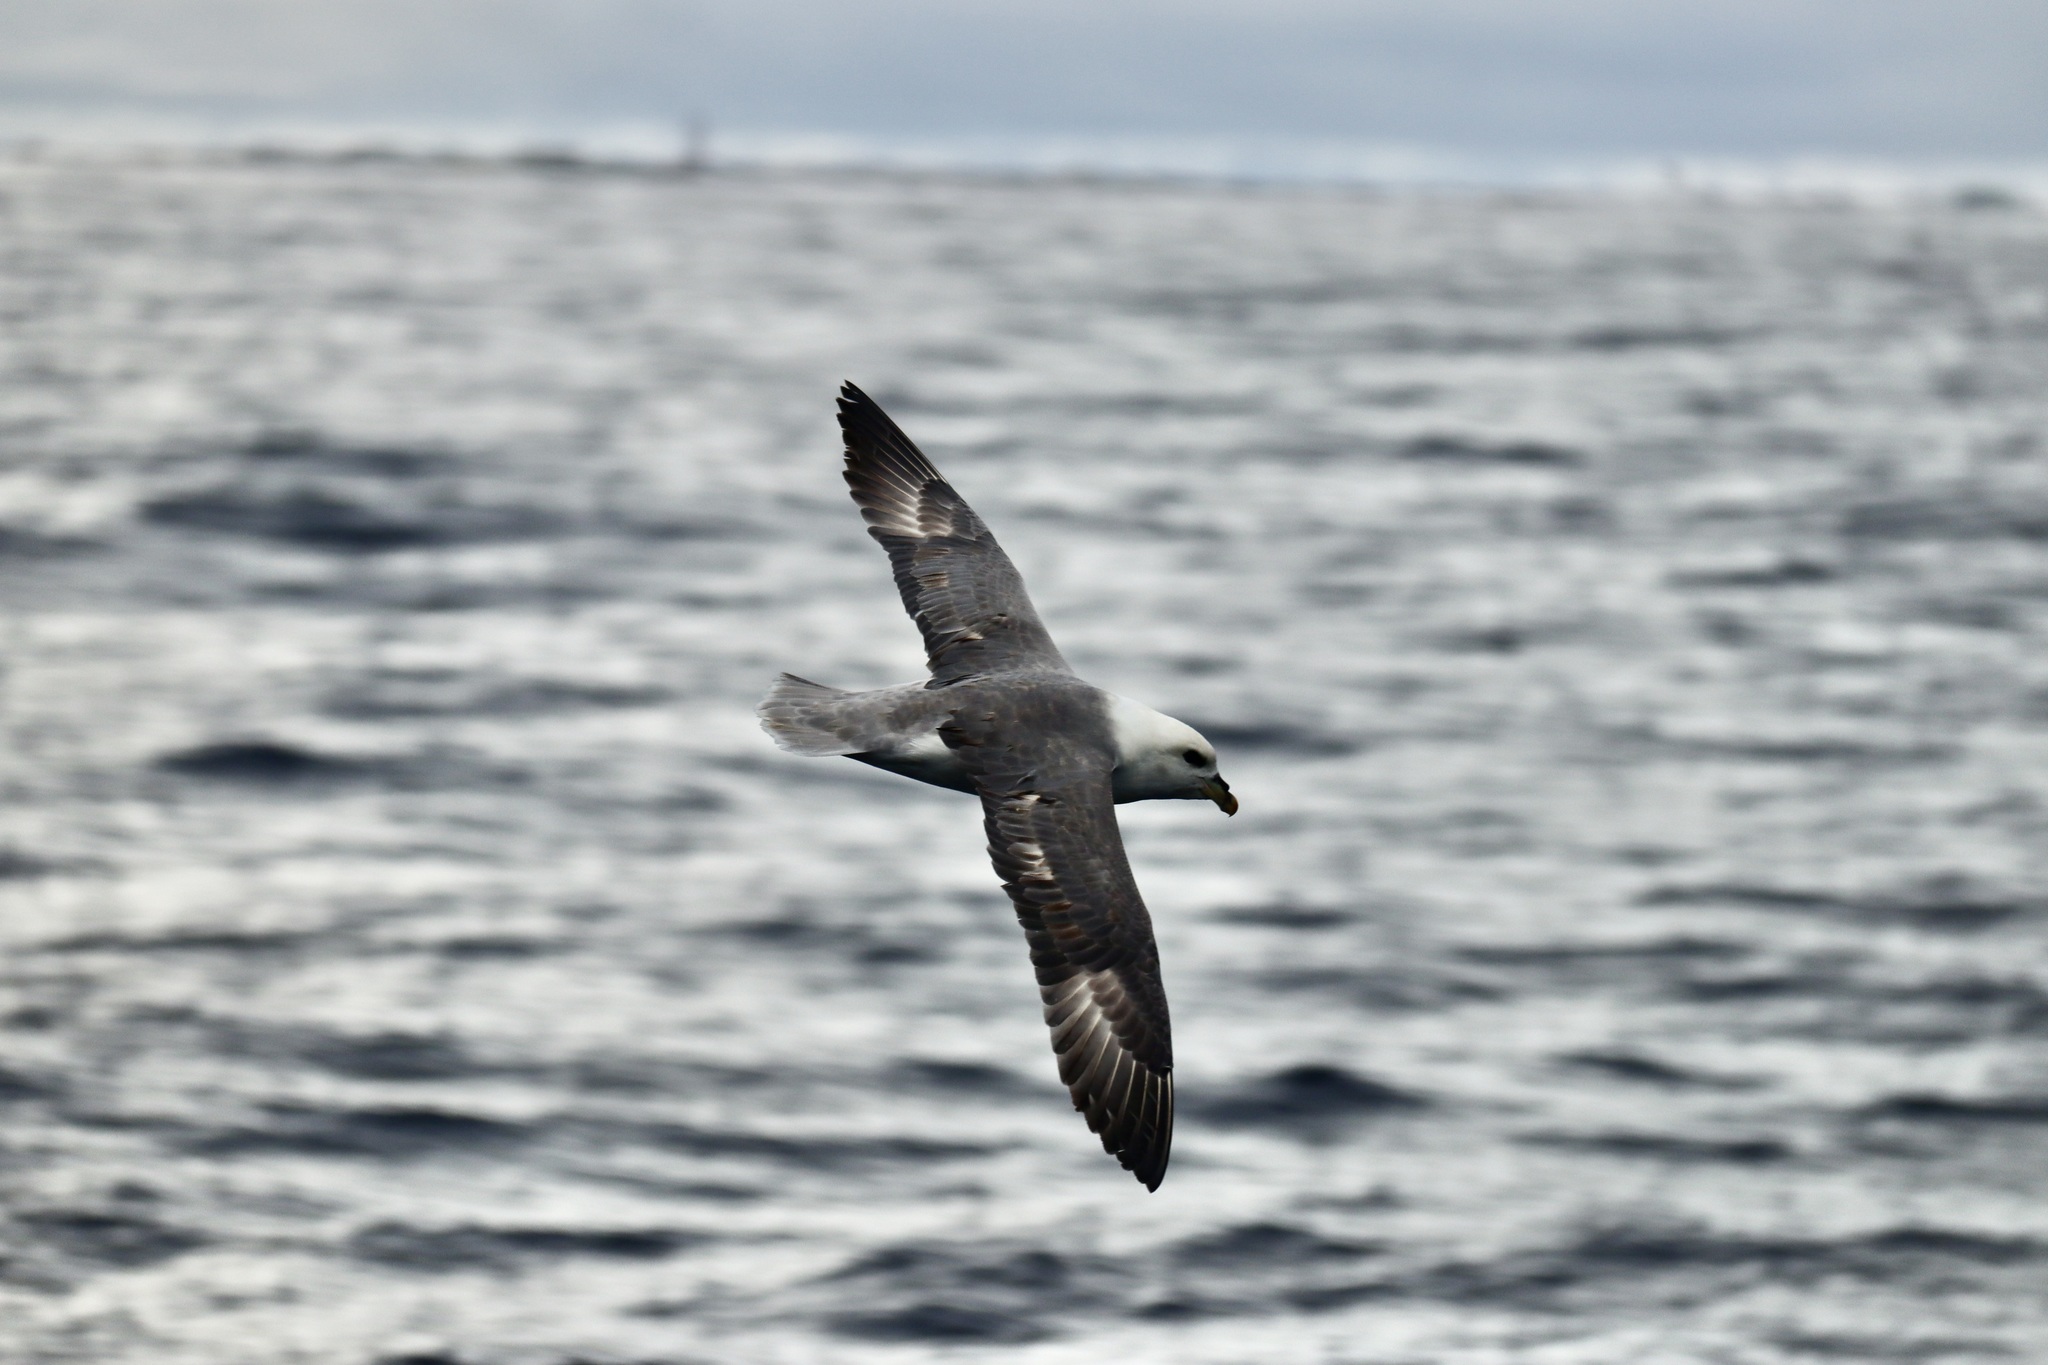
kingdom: Animalia
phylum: Chordata
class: Aves
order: Procellariiformes
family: Procellariidae
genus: Fulmarus
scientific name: Fulmarus glacialis
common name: Northern fulmar
